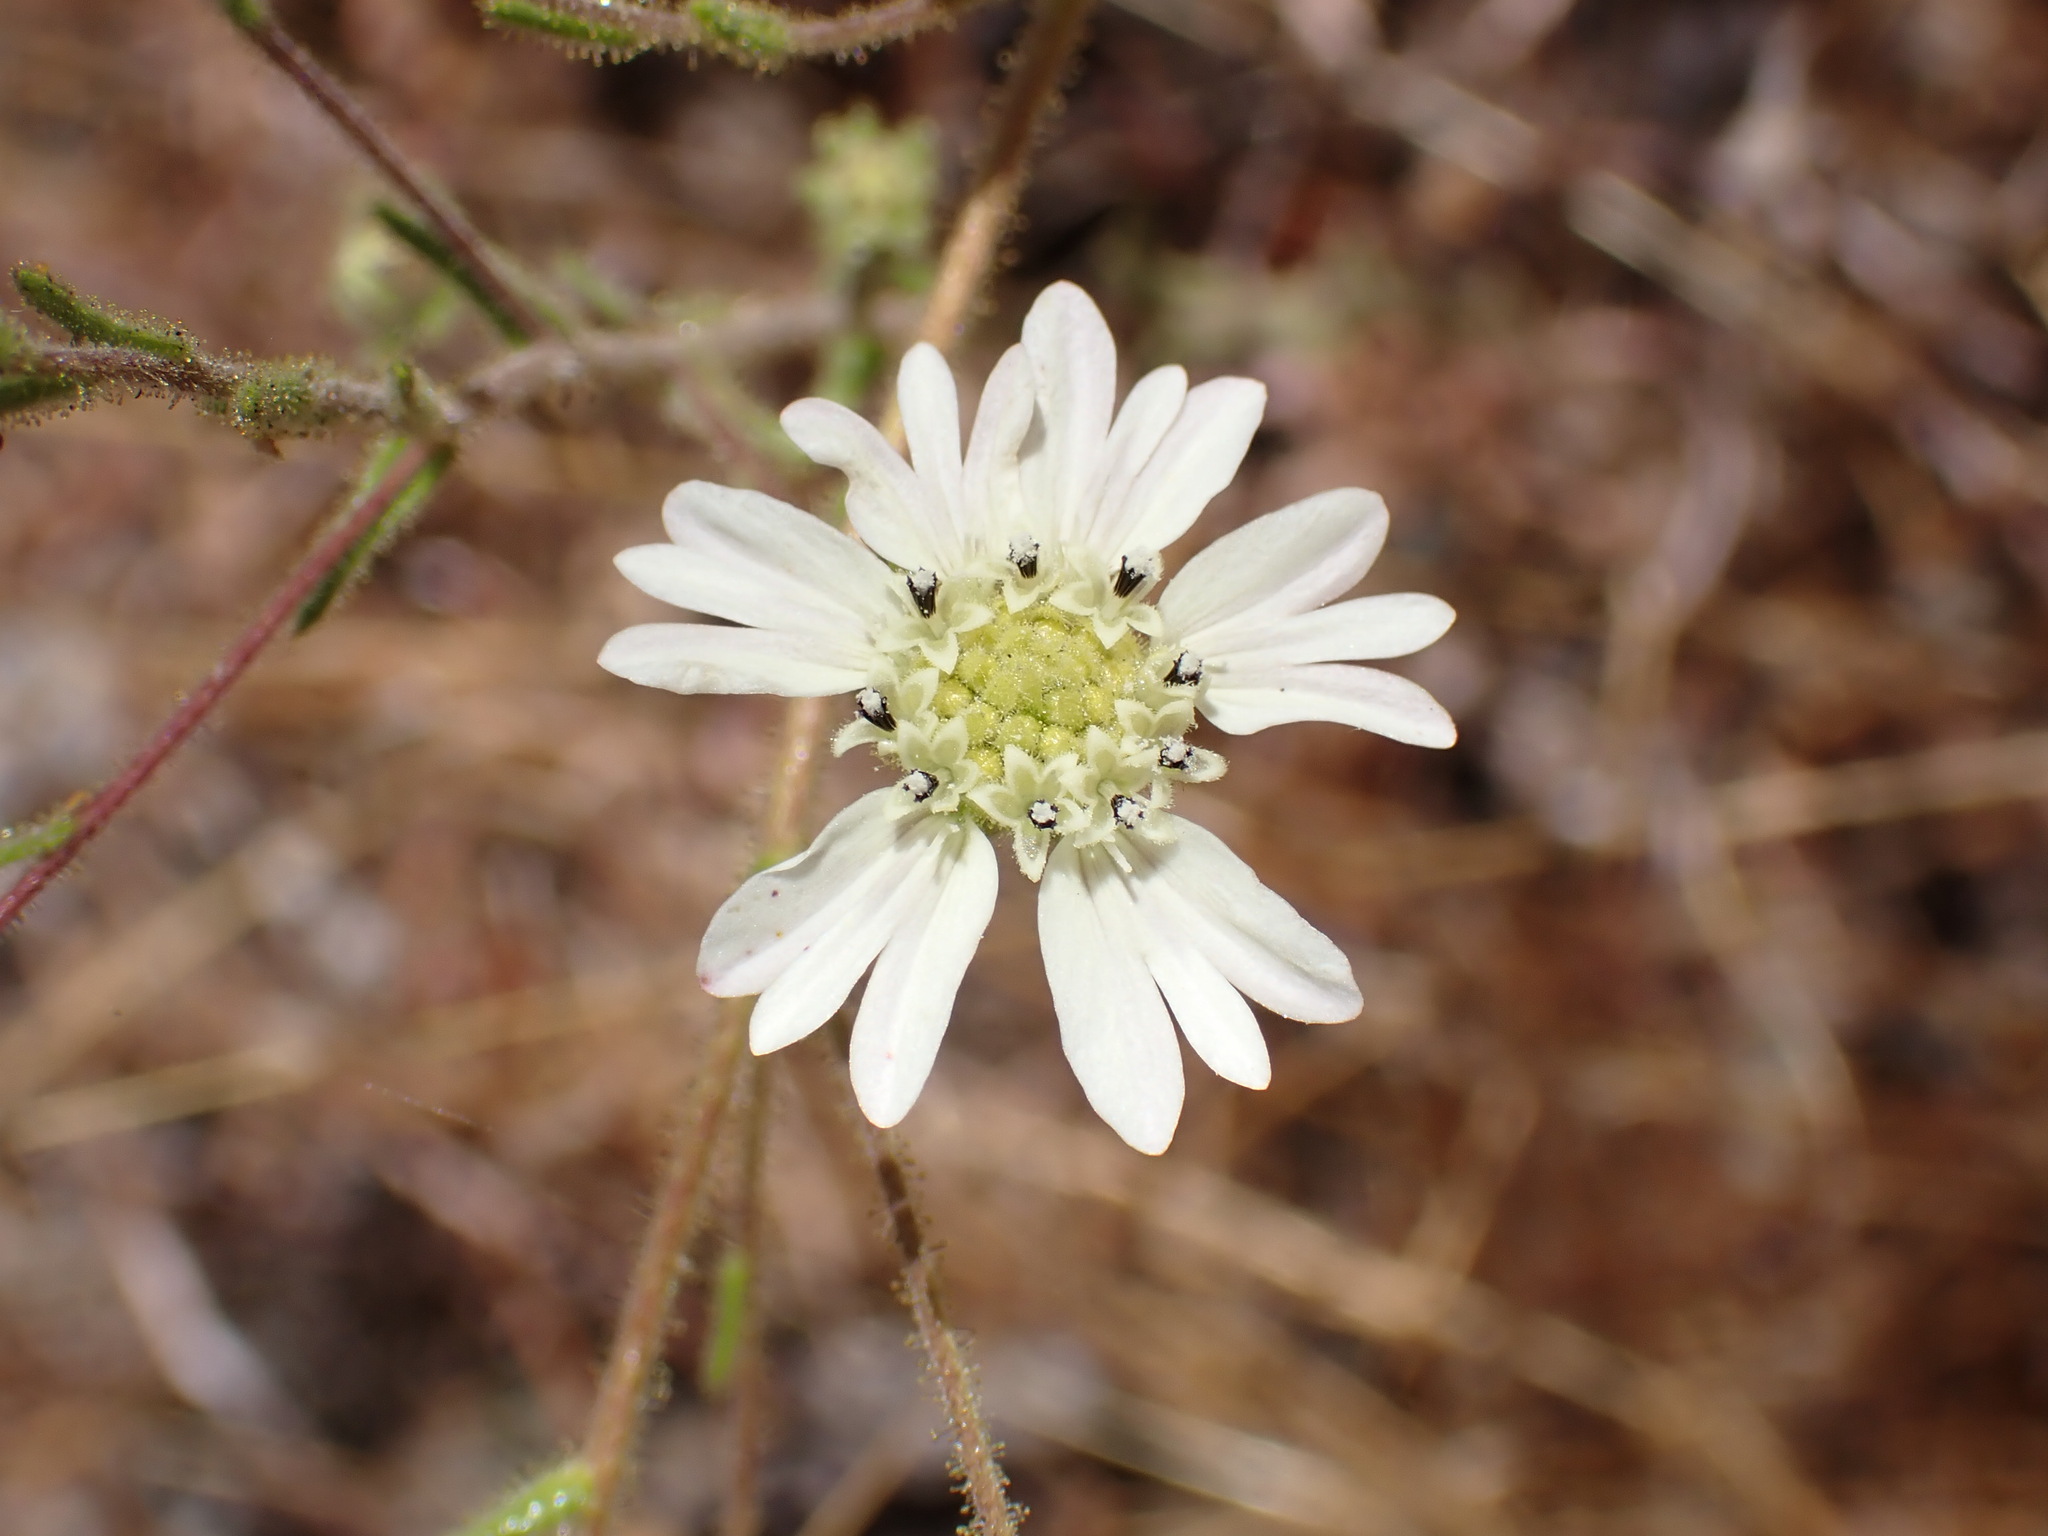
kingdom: Plantae
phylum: Tracheophyta
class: Magnoliopsida
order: Asterales
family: Asteraceae
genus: Hemizonia
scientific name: Hemizonia congesta
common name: Hayfield tarweed
